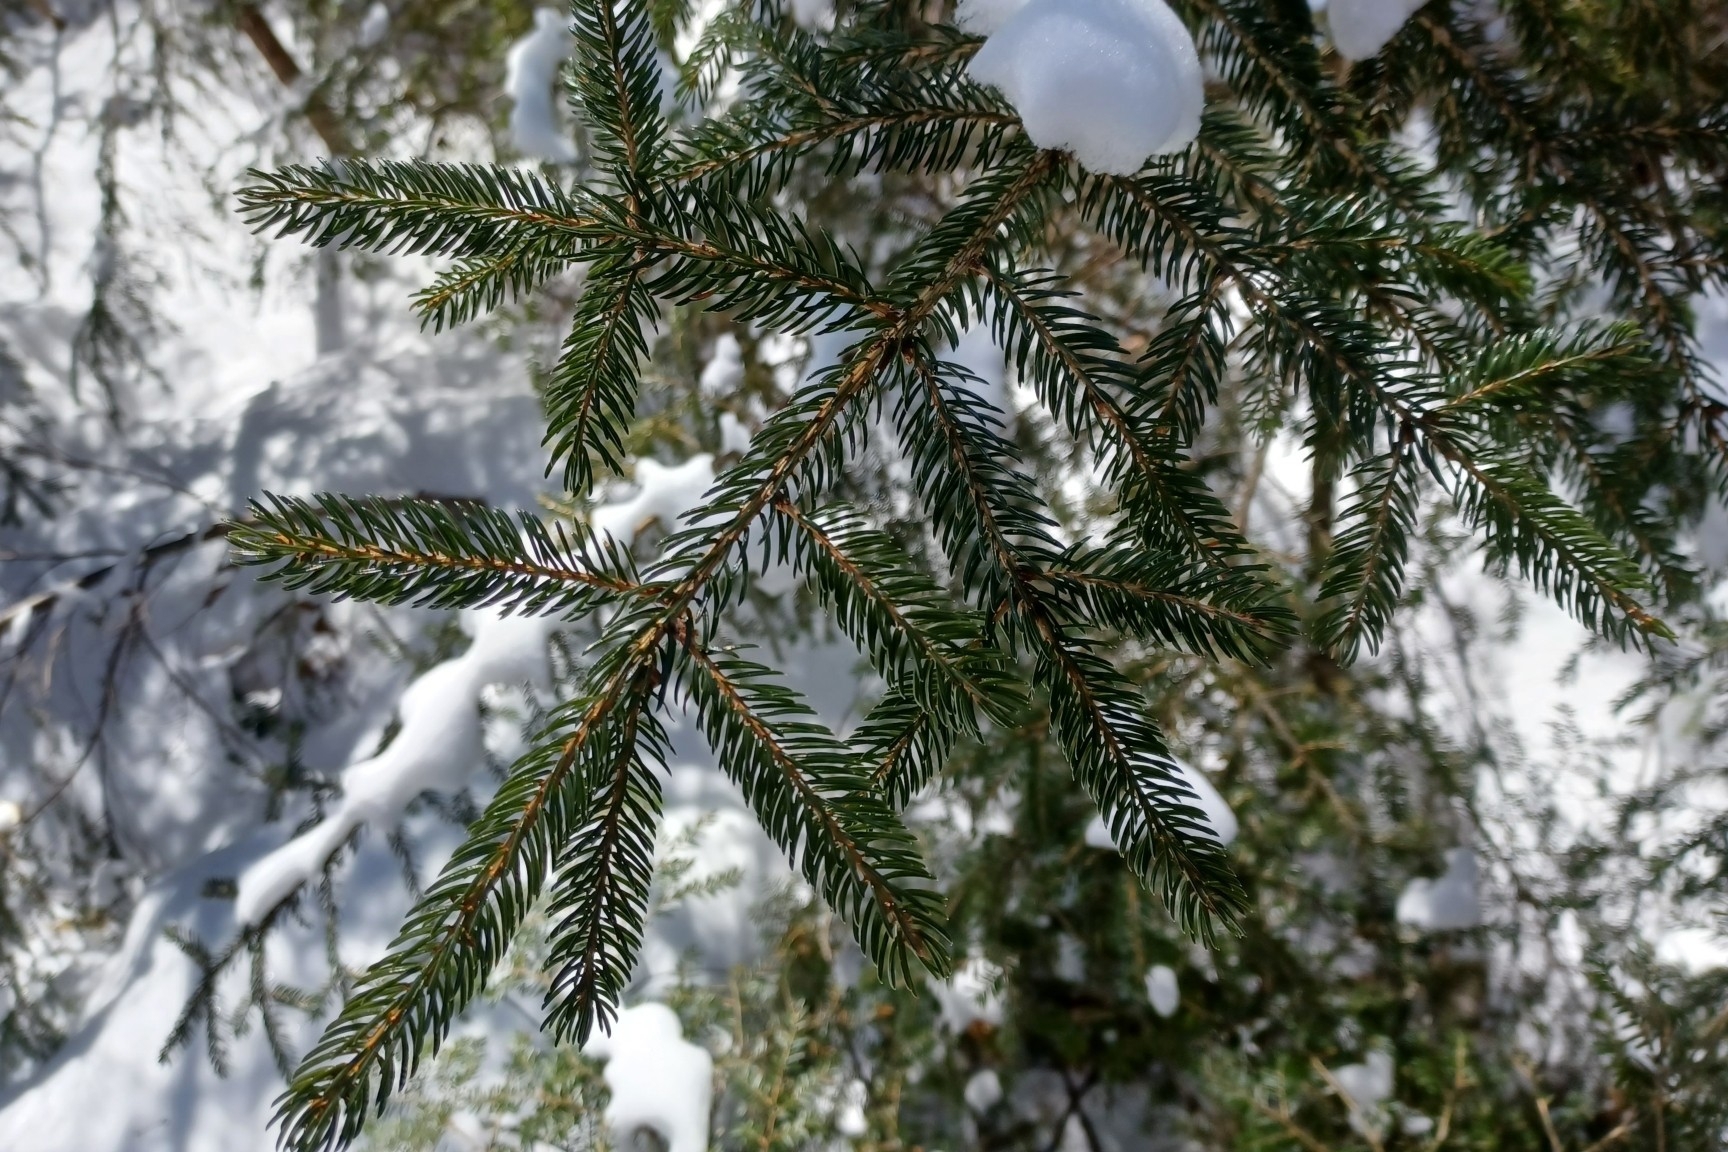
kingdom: Plantae
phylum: Tracheophyta
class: Pinopsida
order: Pinales
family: Pinaceae
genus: Picea
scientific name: Picea rubens
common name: Red spruce
